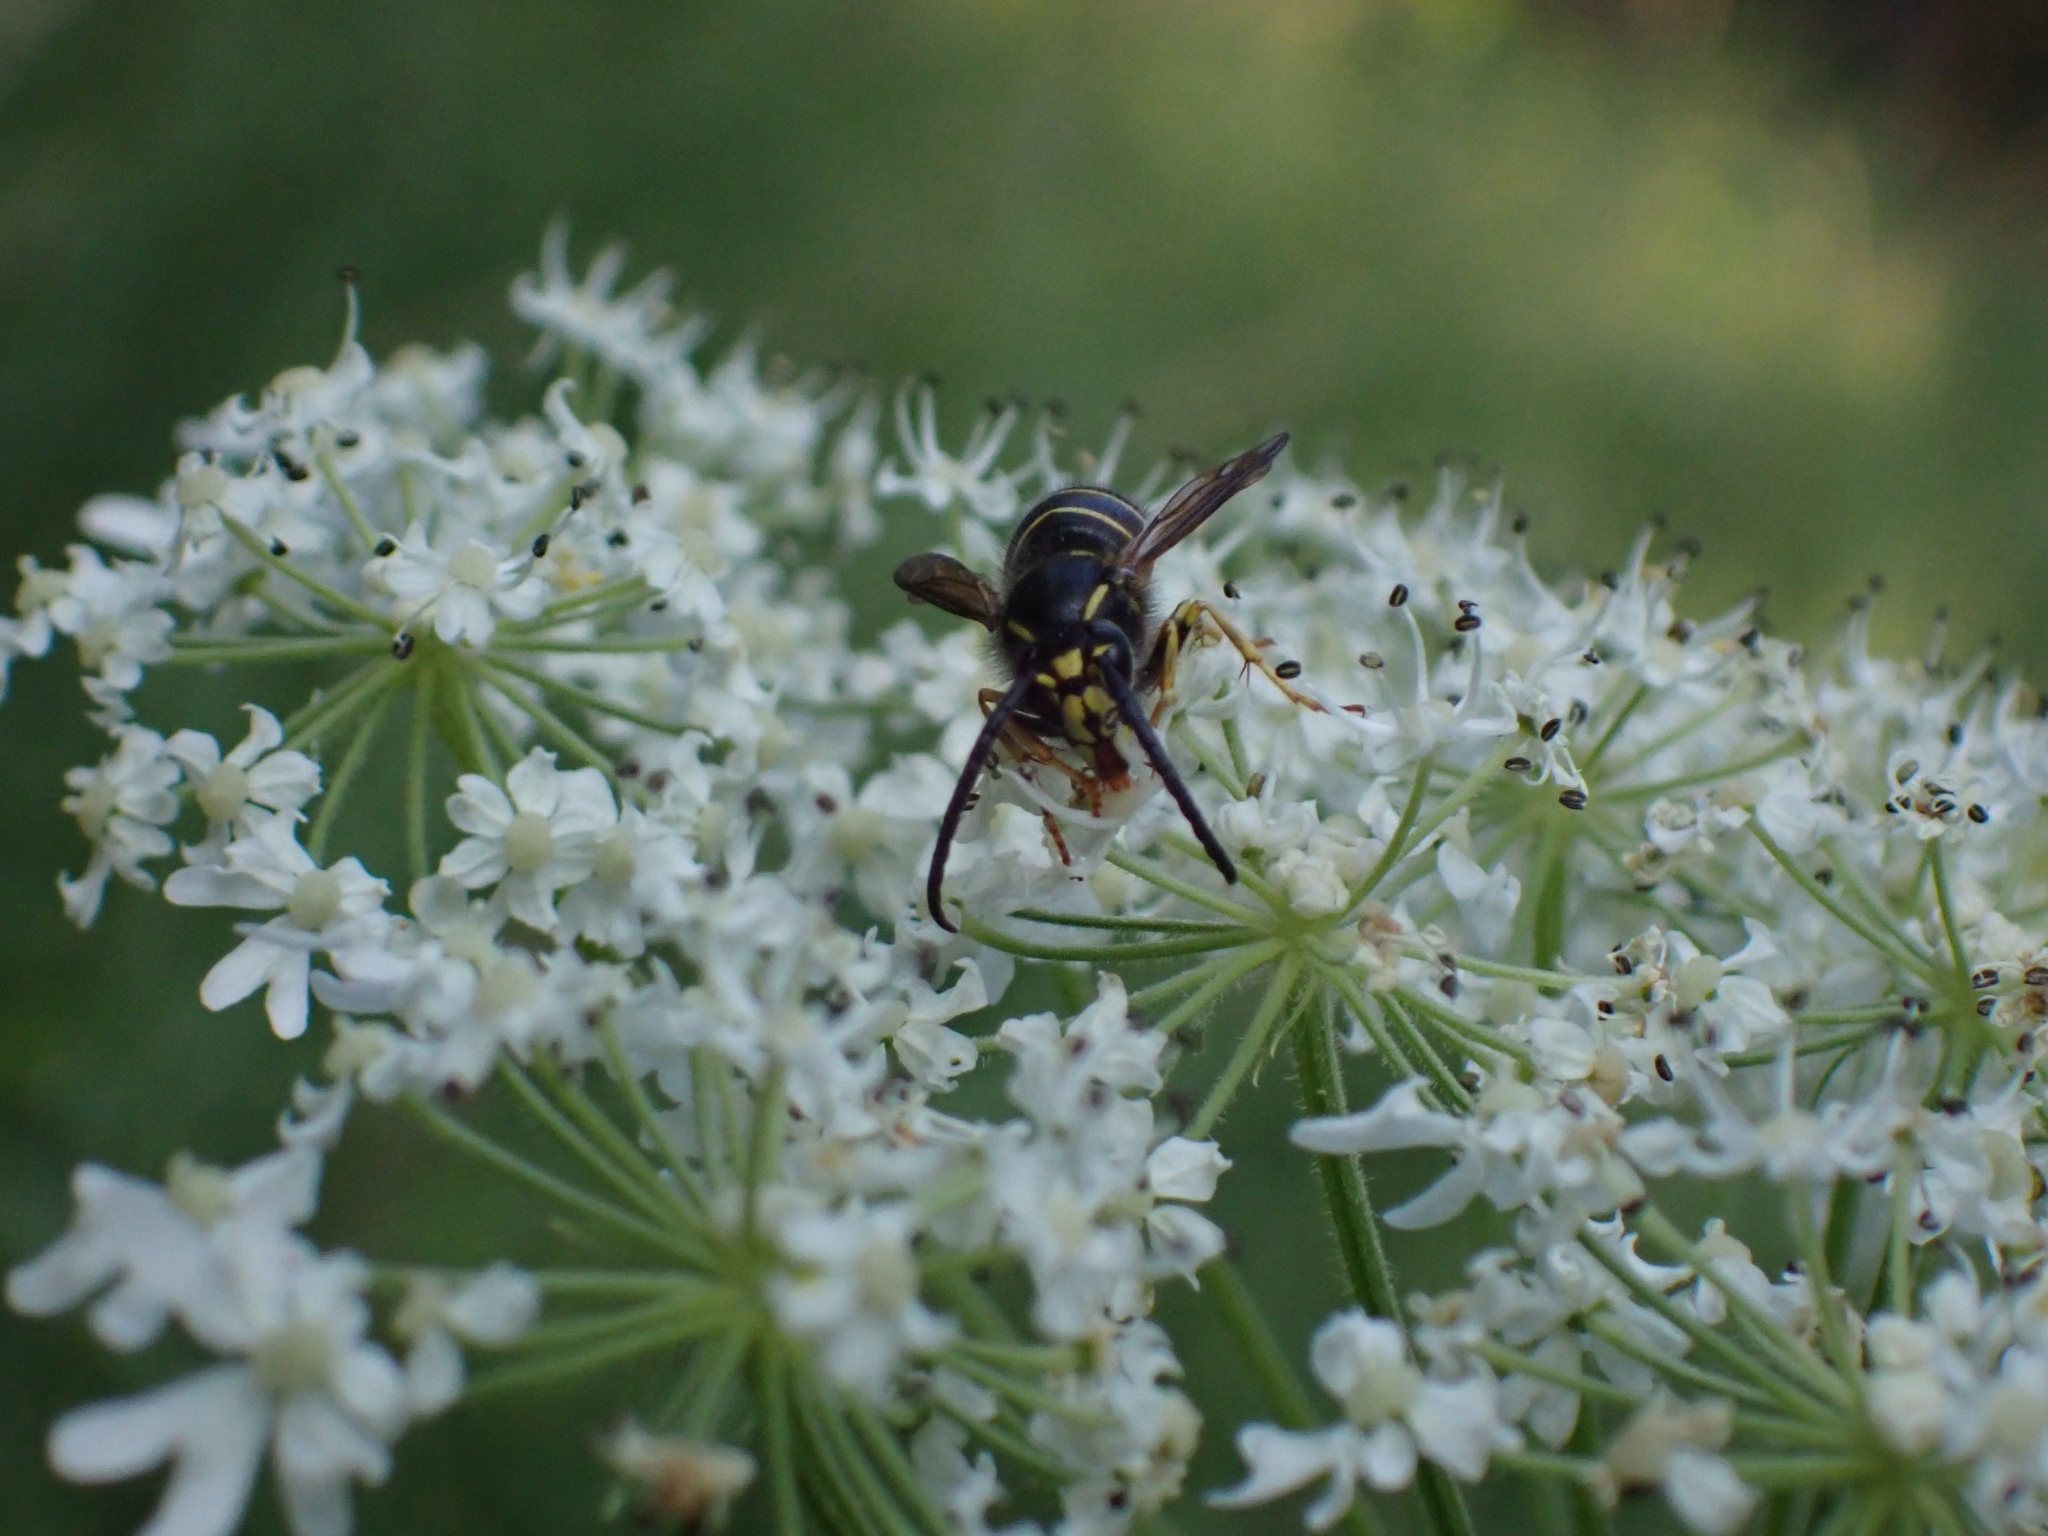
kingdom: Animalia
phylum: Arthropoda
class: Insecta
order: Hymenoptera
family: Vespidae
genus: Dolichovespula
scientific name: Dolichovespula norvegicoides
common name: Northern aerial yellowjacket
